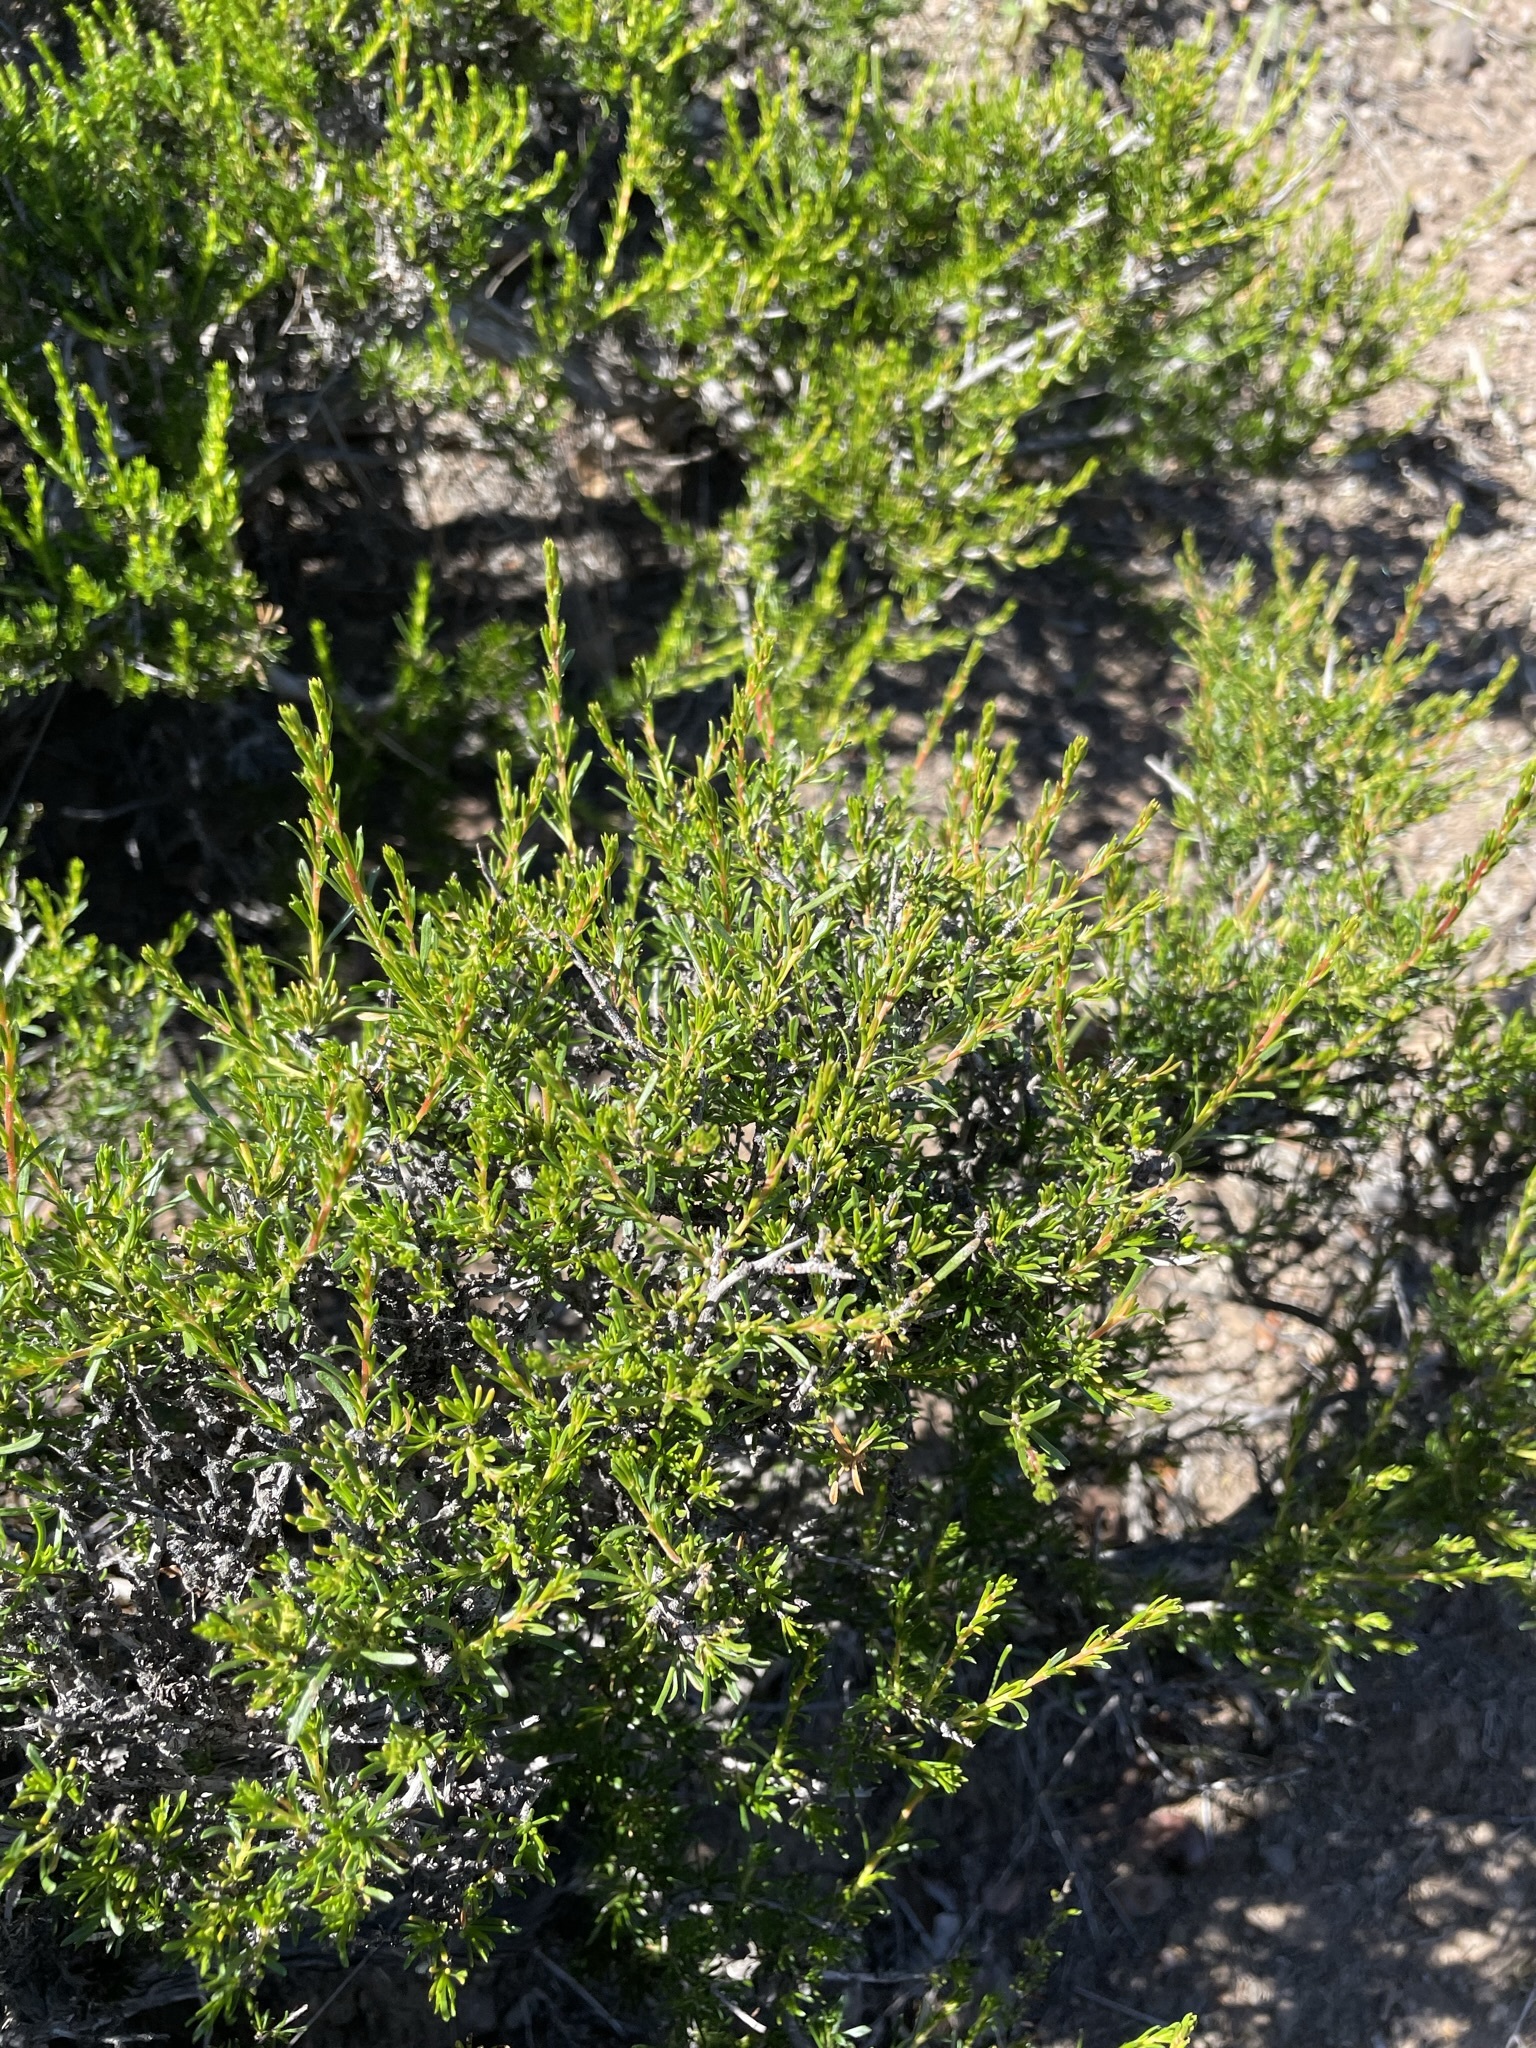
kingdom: Plantae
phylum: Tracheophyta
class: Magnoliopsida
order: Rosales
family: Rosaceae
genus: Adenostoma
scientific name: Adenostoma fasciculatum
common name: Chamise
